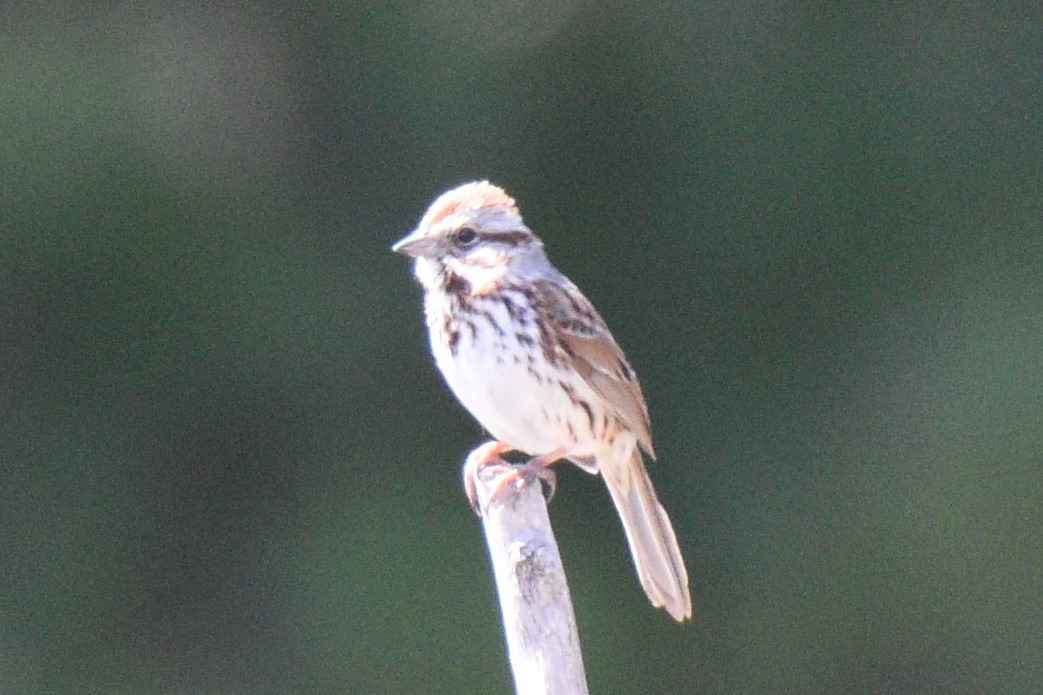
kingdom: Animalia
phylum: Chordata
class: Aves
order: Passeriformes
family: Passerellidae
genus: Melospiza
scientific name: Melospiza melodia
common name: Song sparrow
